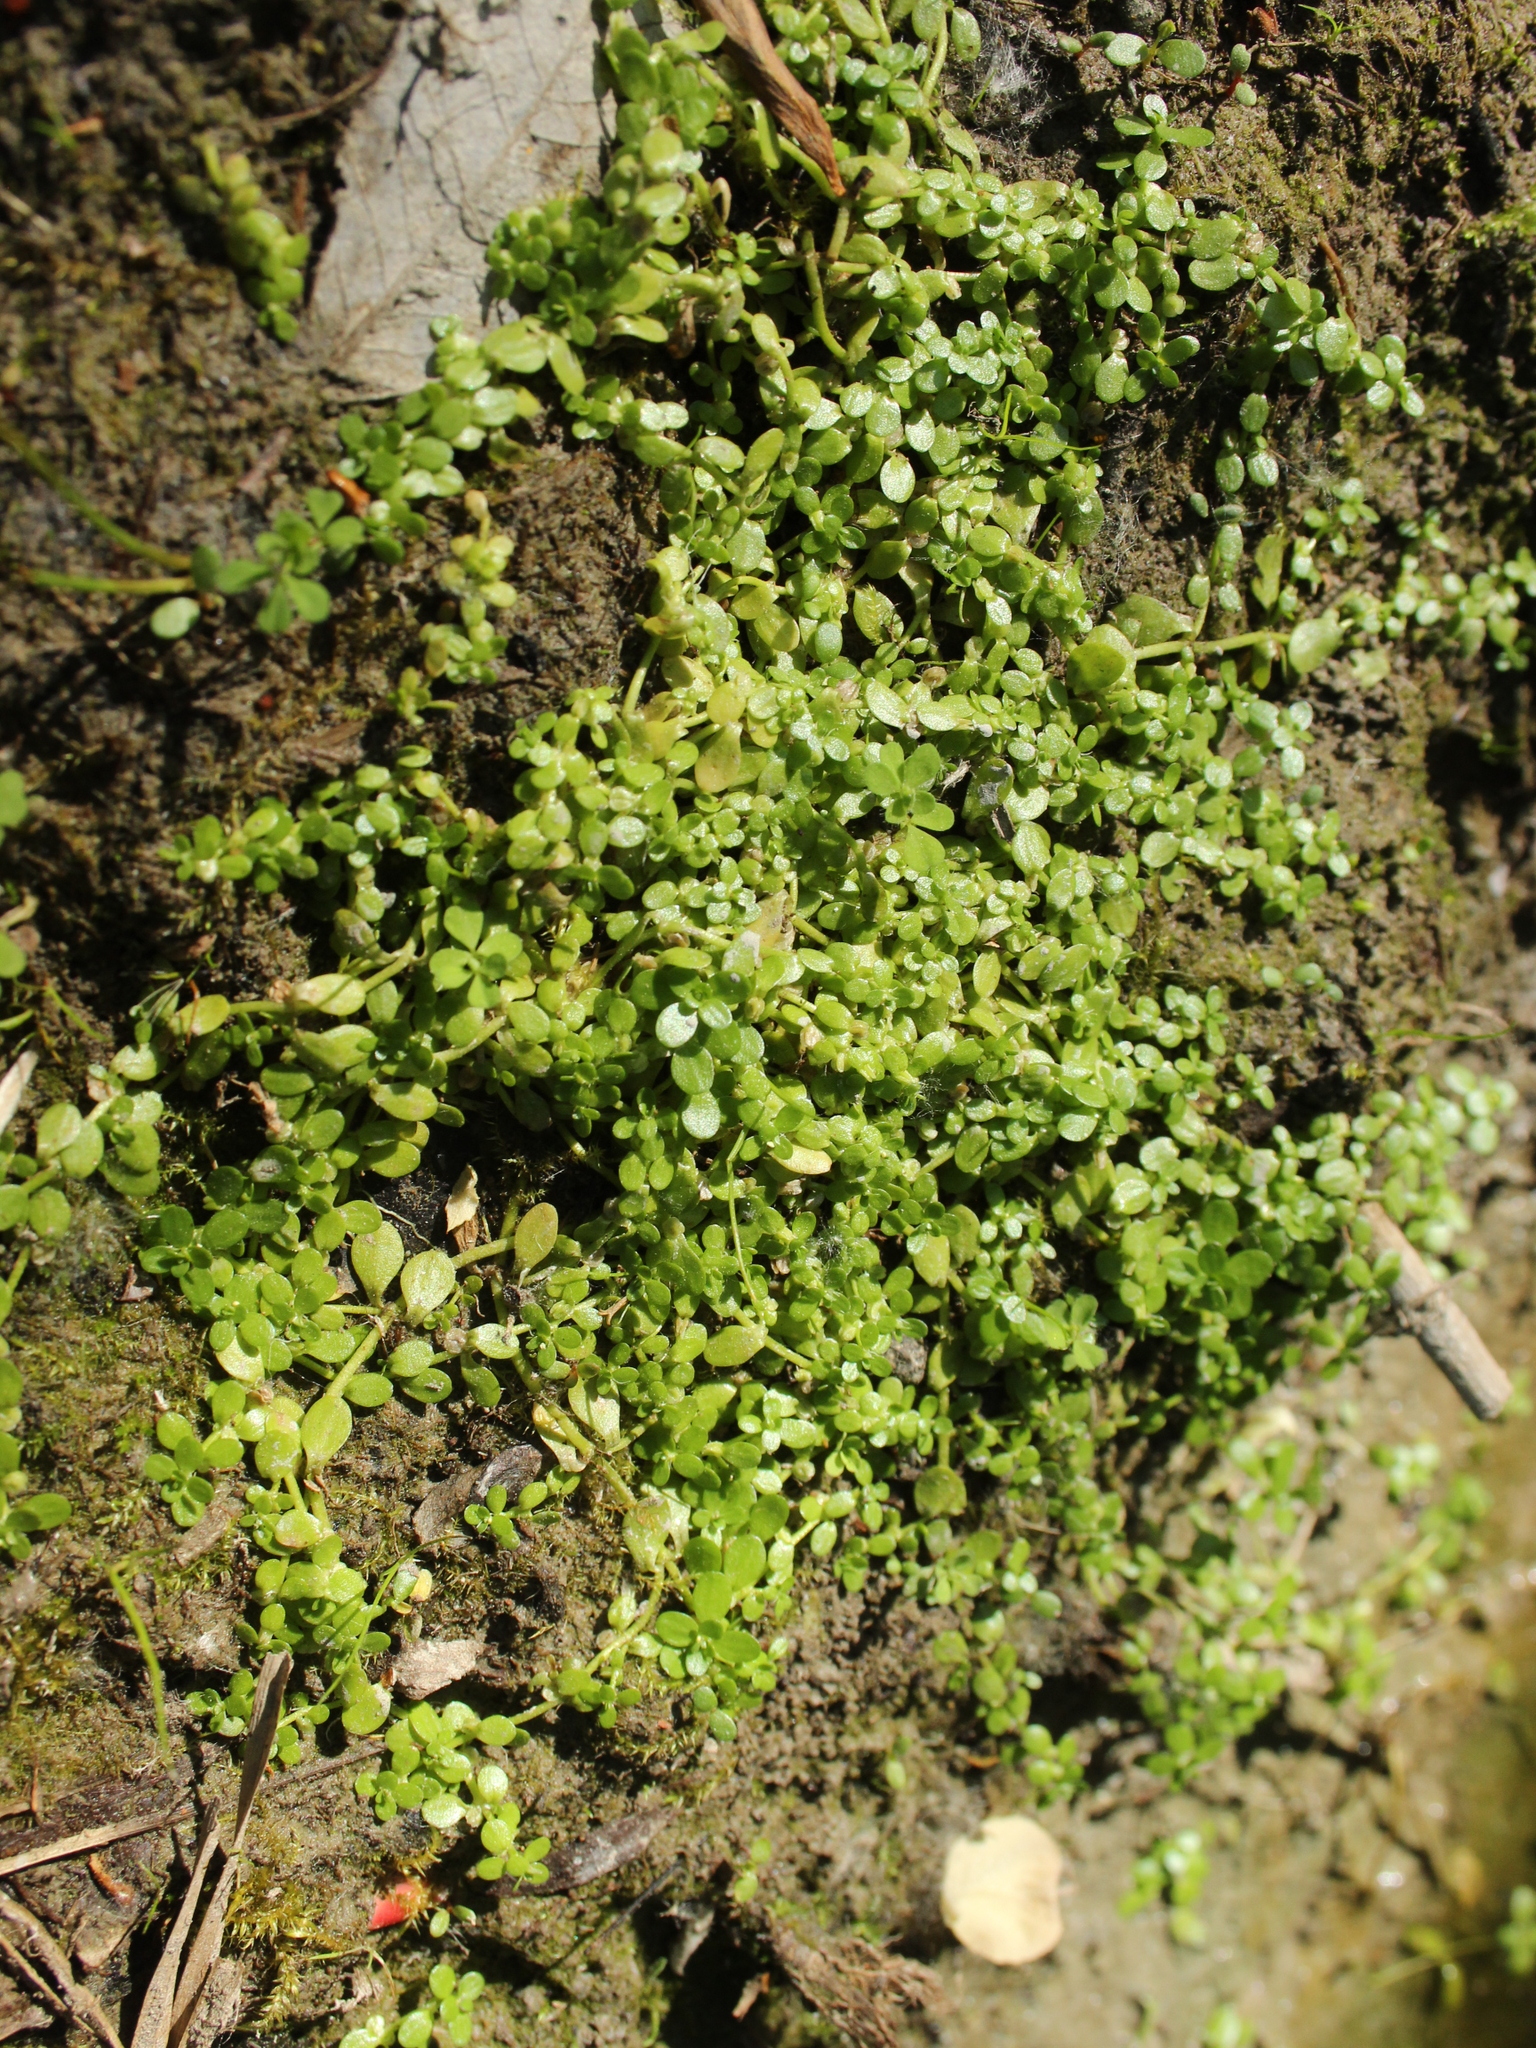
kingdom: Plantae
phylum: Tracheophyta
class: Magnoliopsida
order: Lamiales
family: Plantaginaceae
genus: Callitriche
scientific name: Callitriche stagnalis
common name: Common water-starwort
